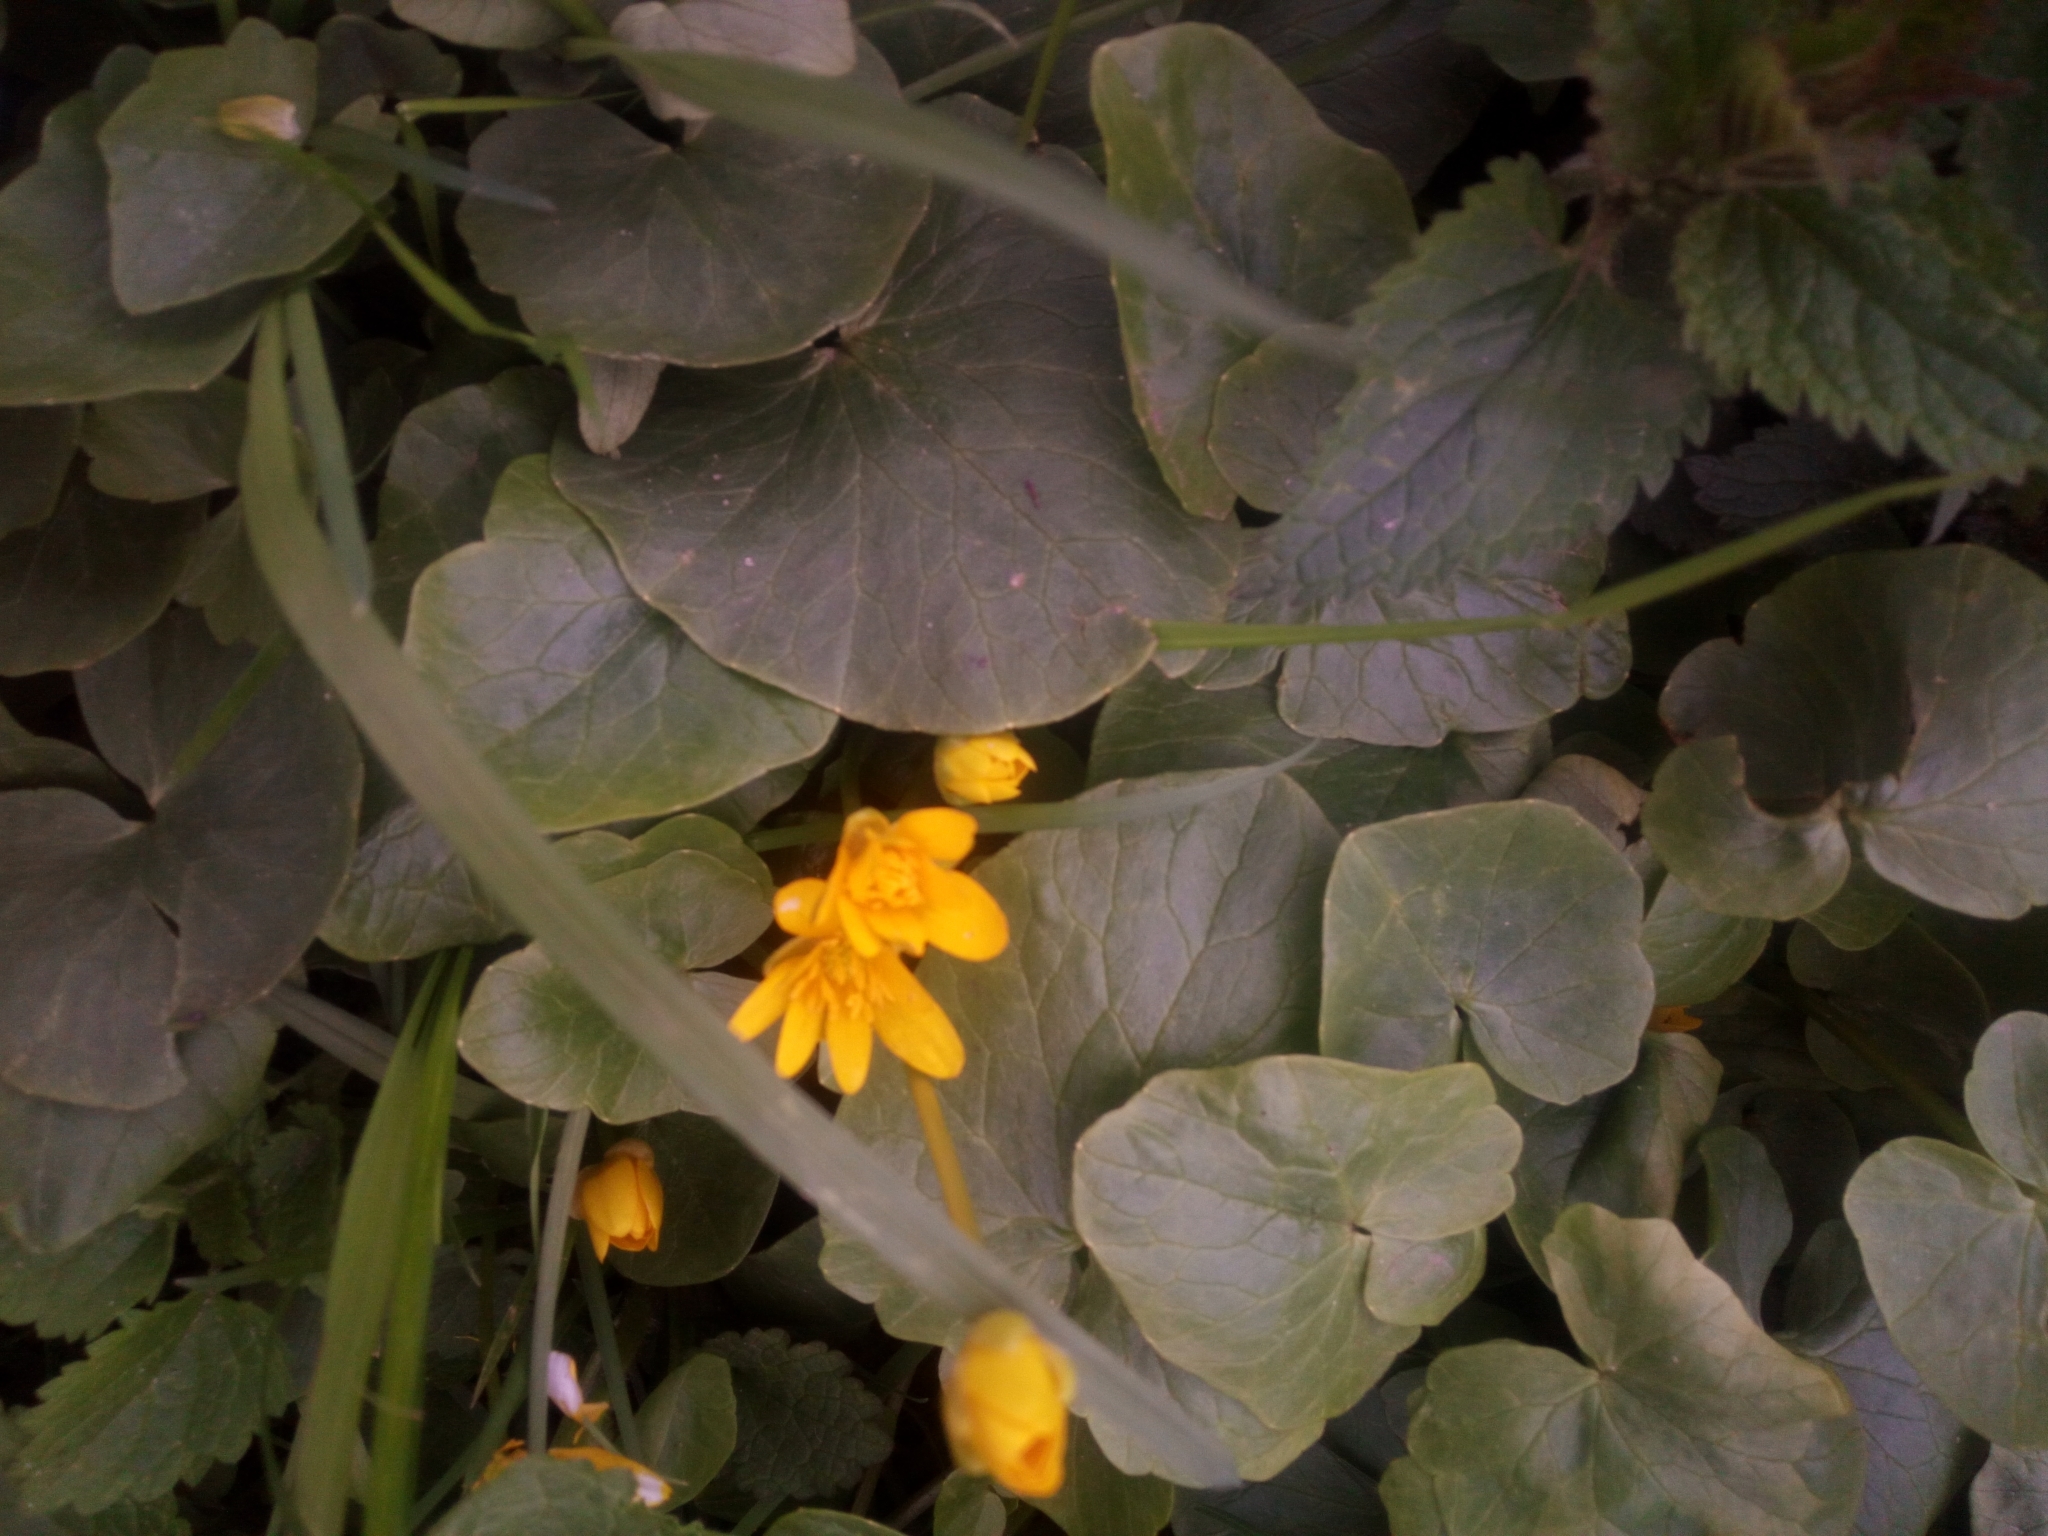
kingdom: Plantae
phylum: Tracheophyta
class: Magnoliopsida
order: Ranunculales
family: Ranunculaceae
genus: Ficaria
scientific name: Ficaria verna
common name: Lesser celandine
